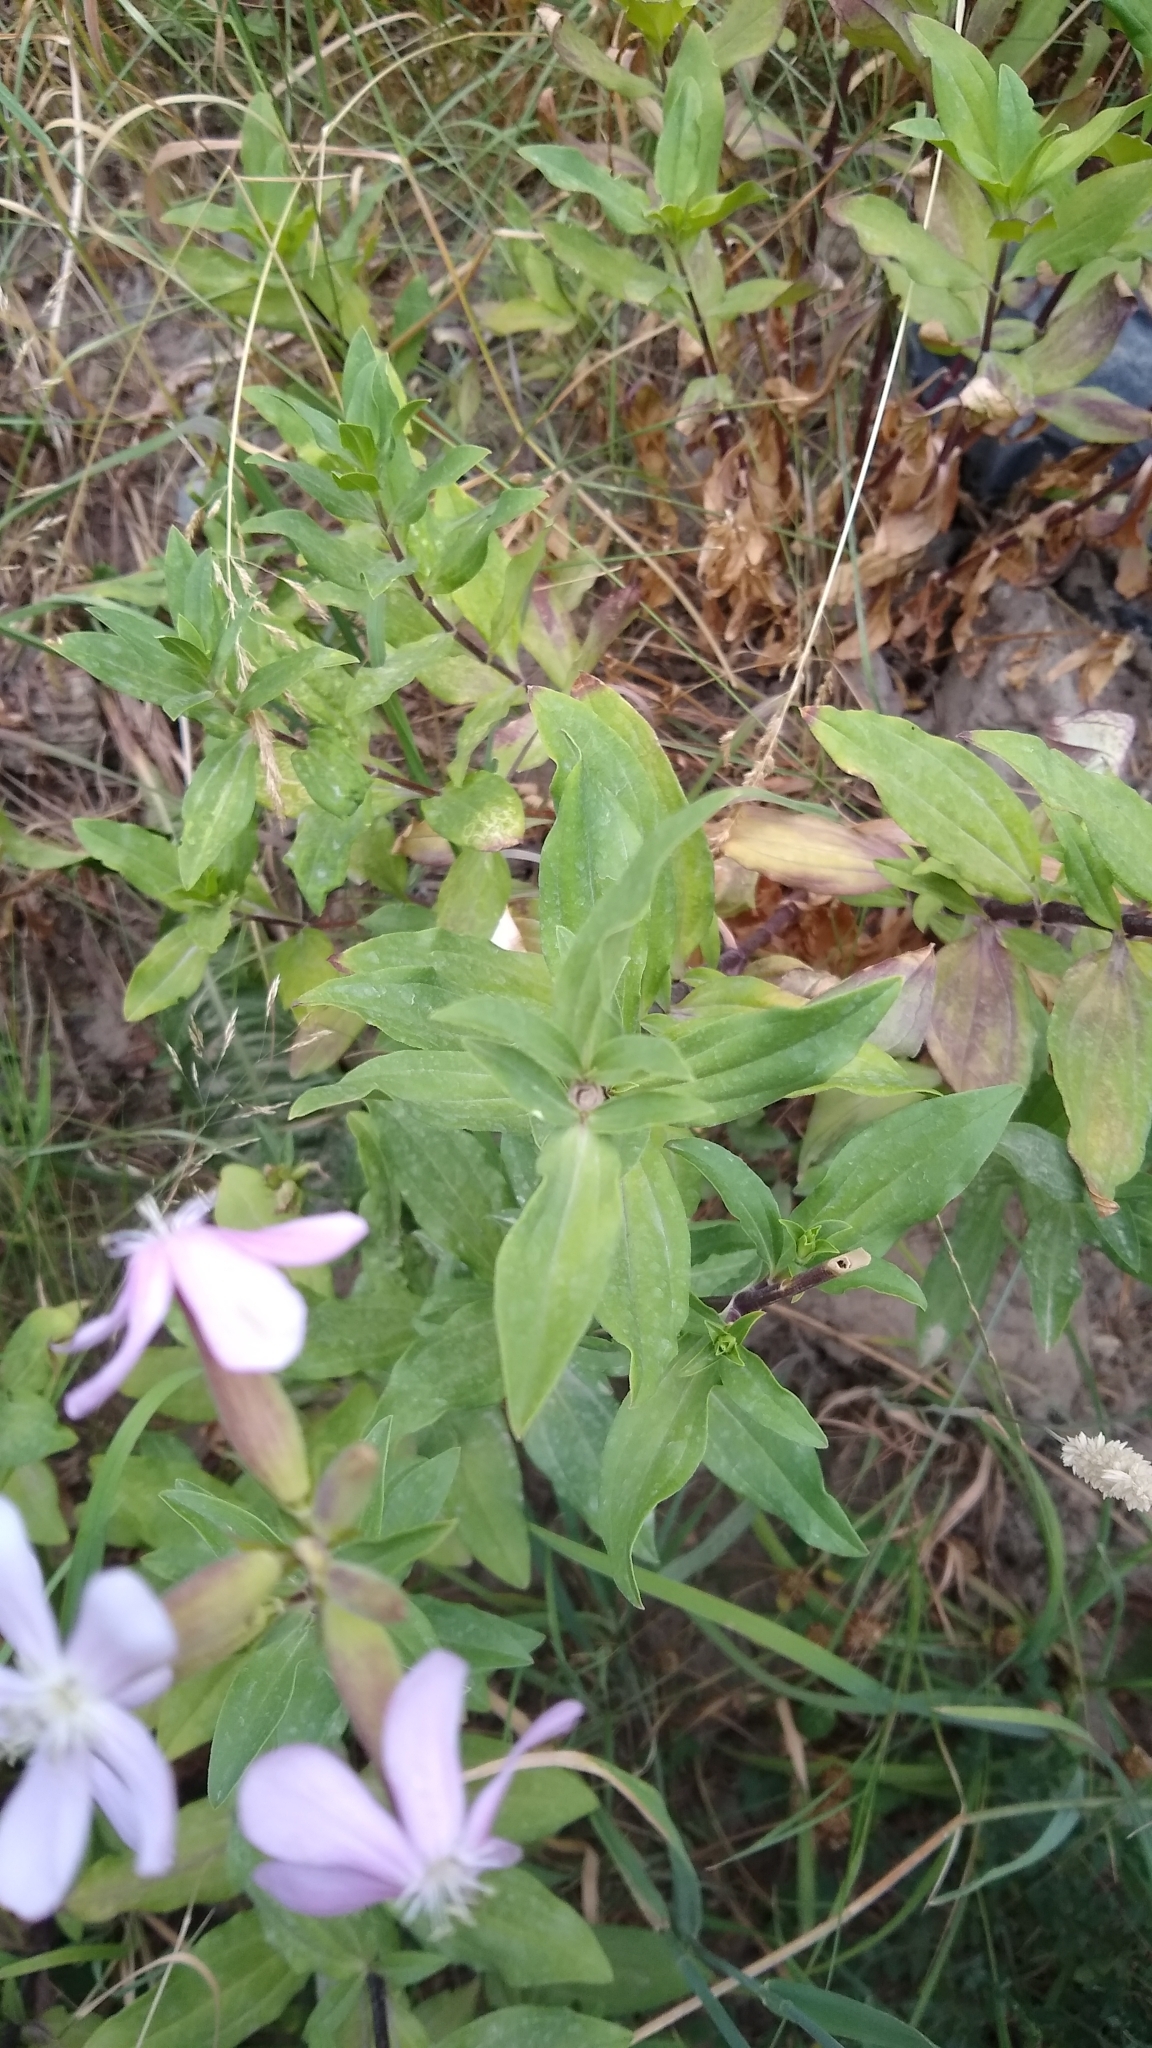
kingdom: Plantae
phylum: Tracheophyta
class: Magnoliopsida
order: Caryophyllales
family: Caryophyllaceae
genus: Saponaria
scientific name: Saponaria officinalis
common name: Soapwort
